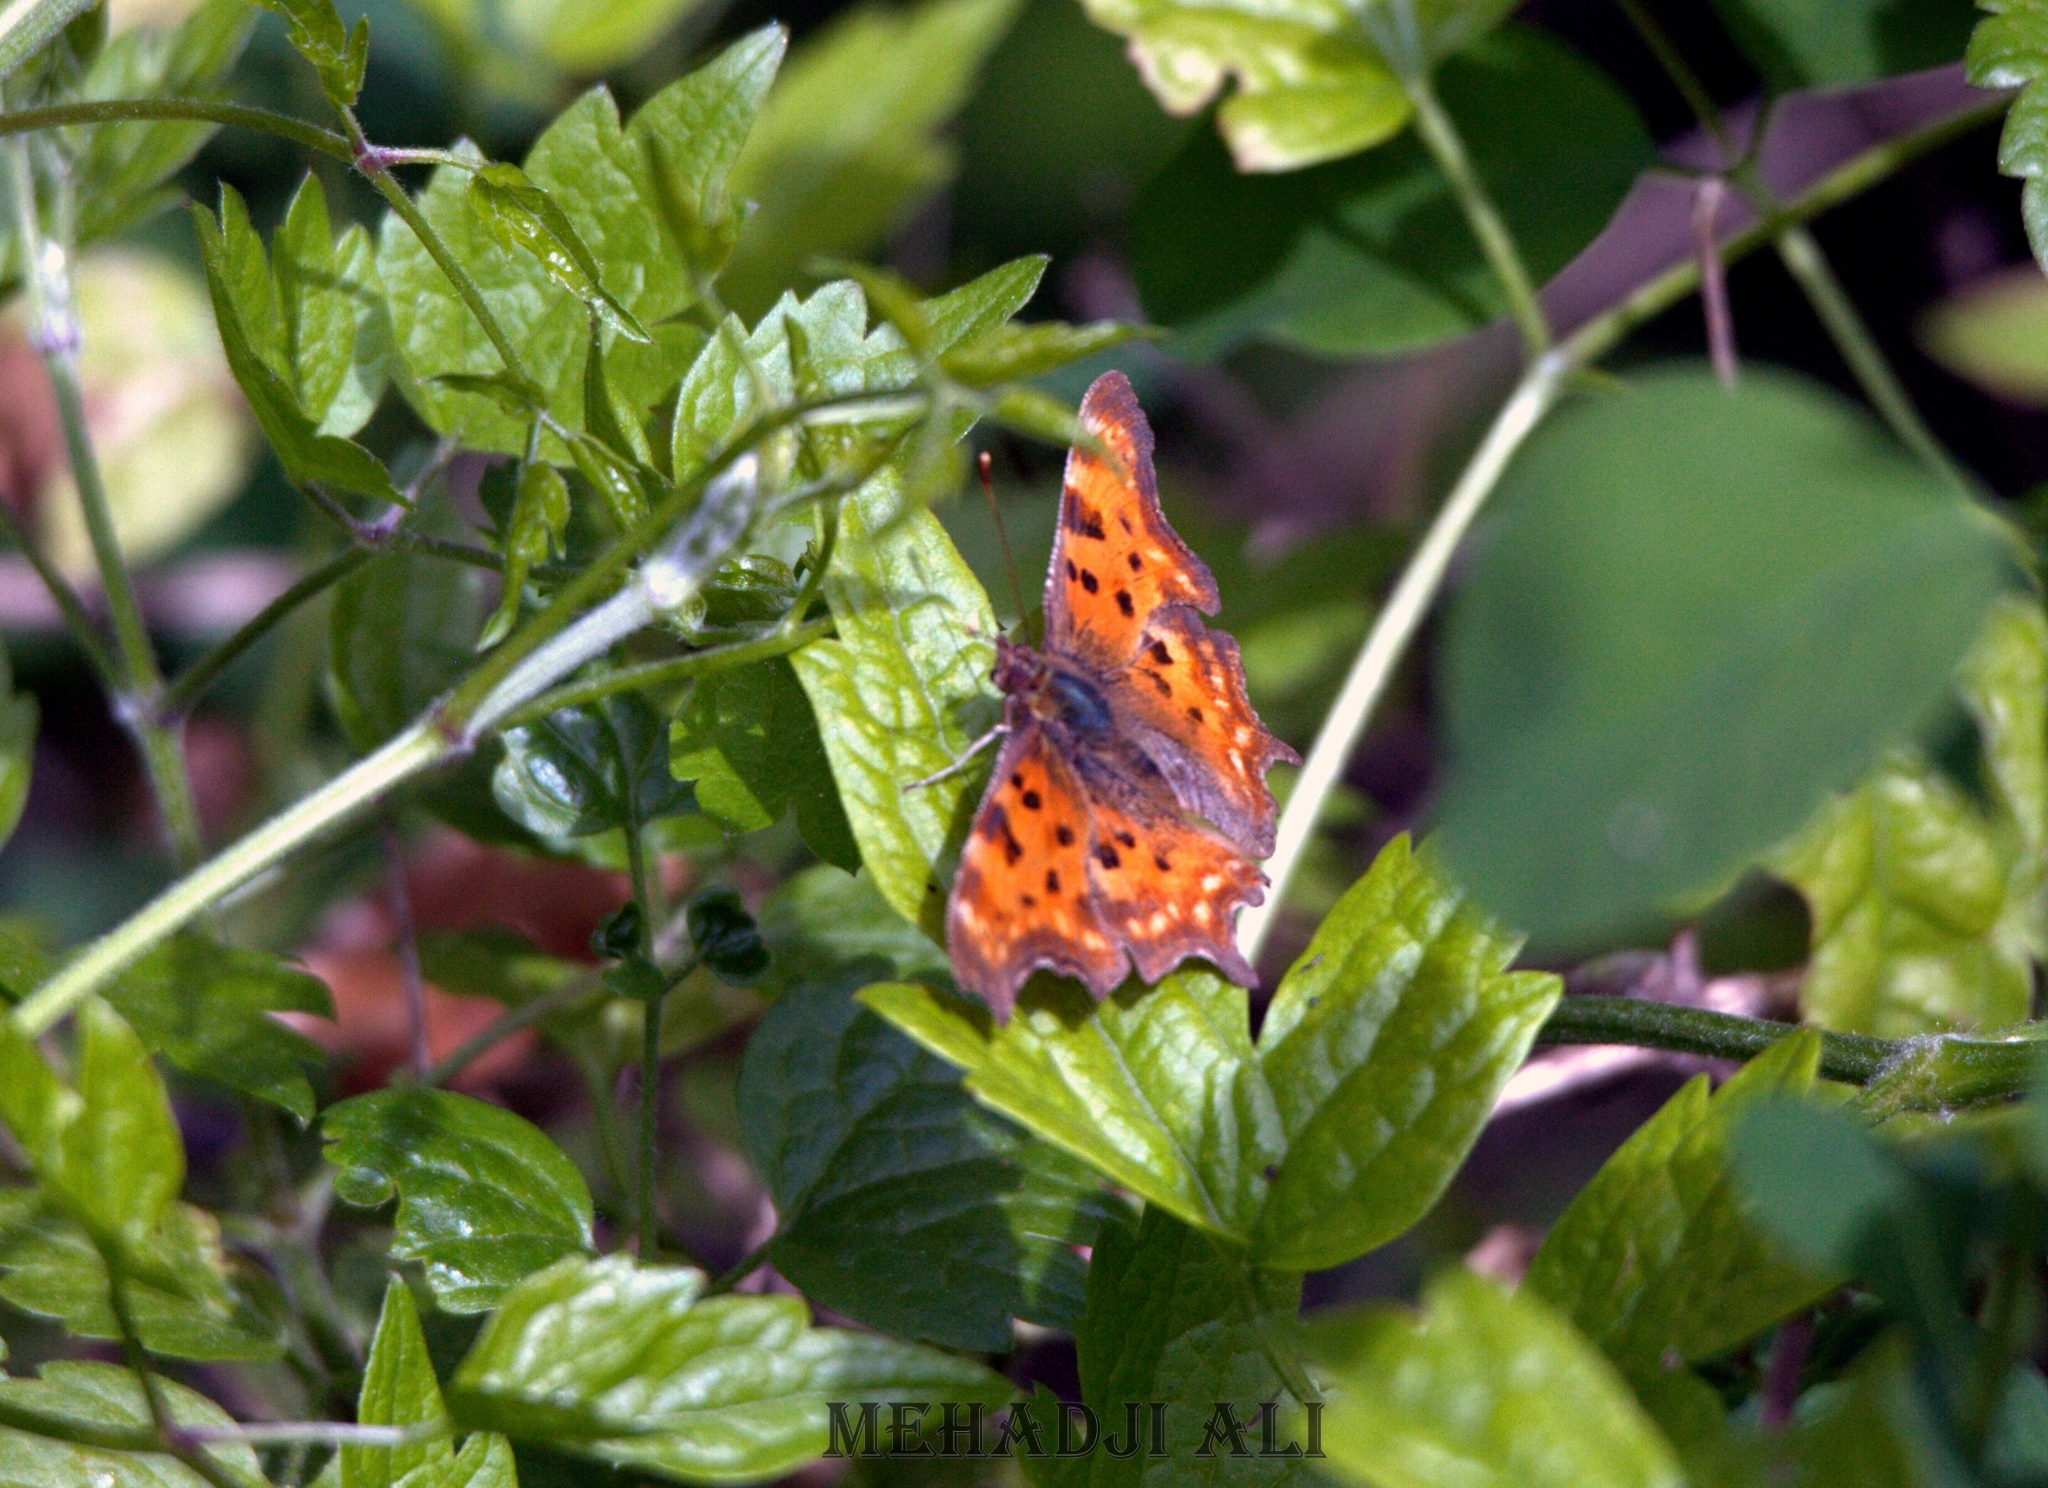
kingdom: Animalia
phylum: Arthropoda
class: Insecta
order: Lepidoptera
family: Nymphalidae
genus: Polygonia
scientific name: Polygonia c-album
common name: Comma
